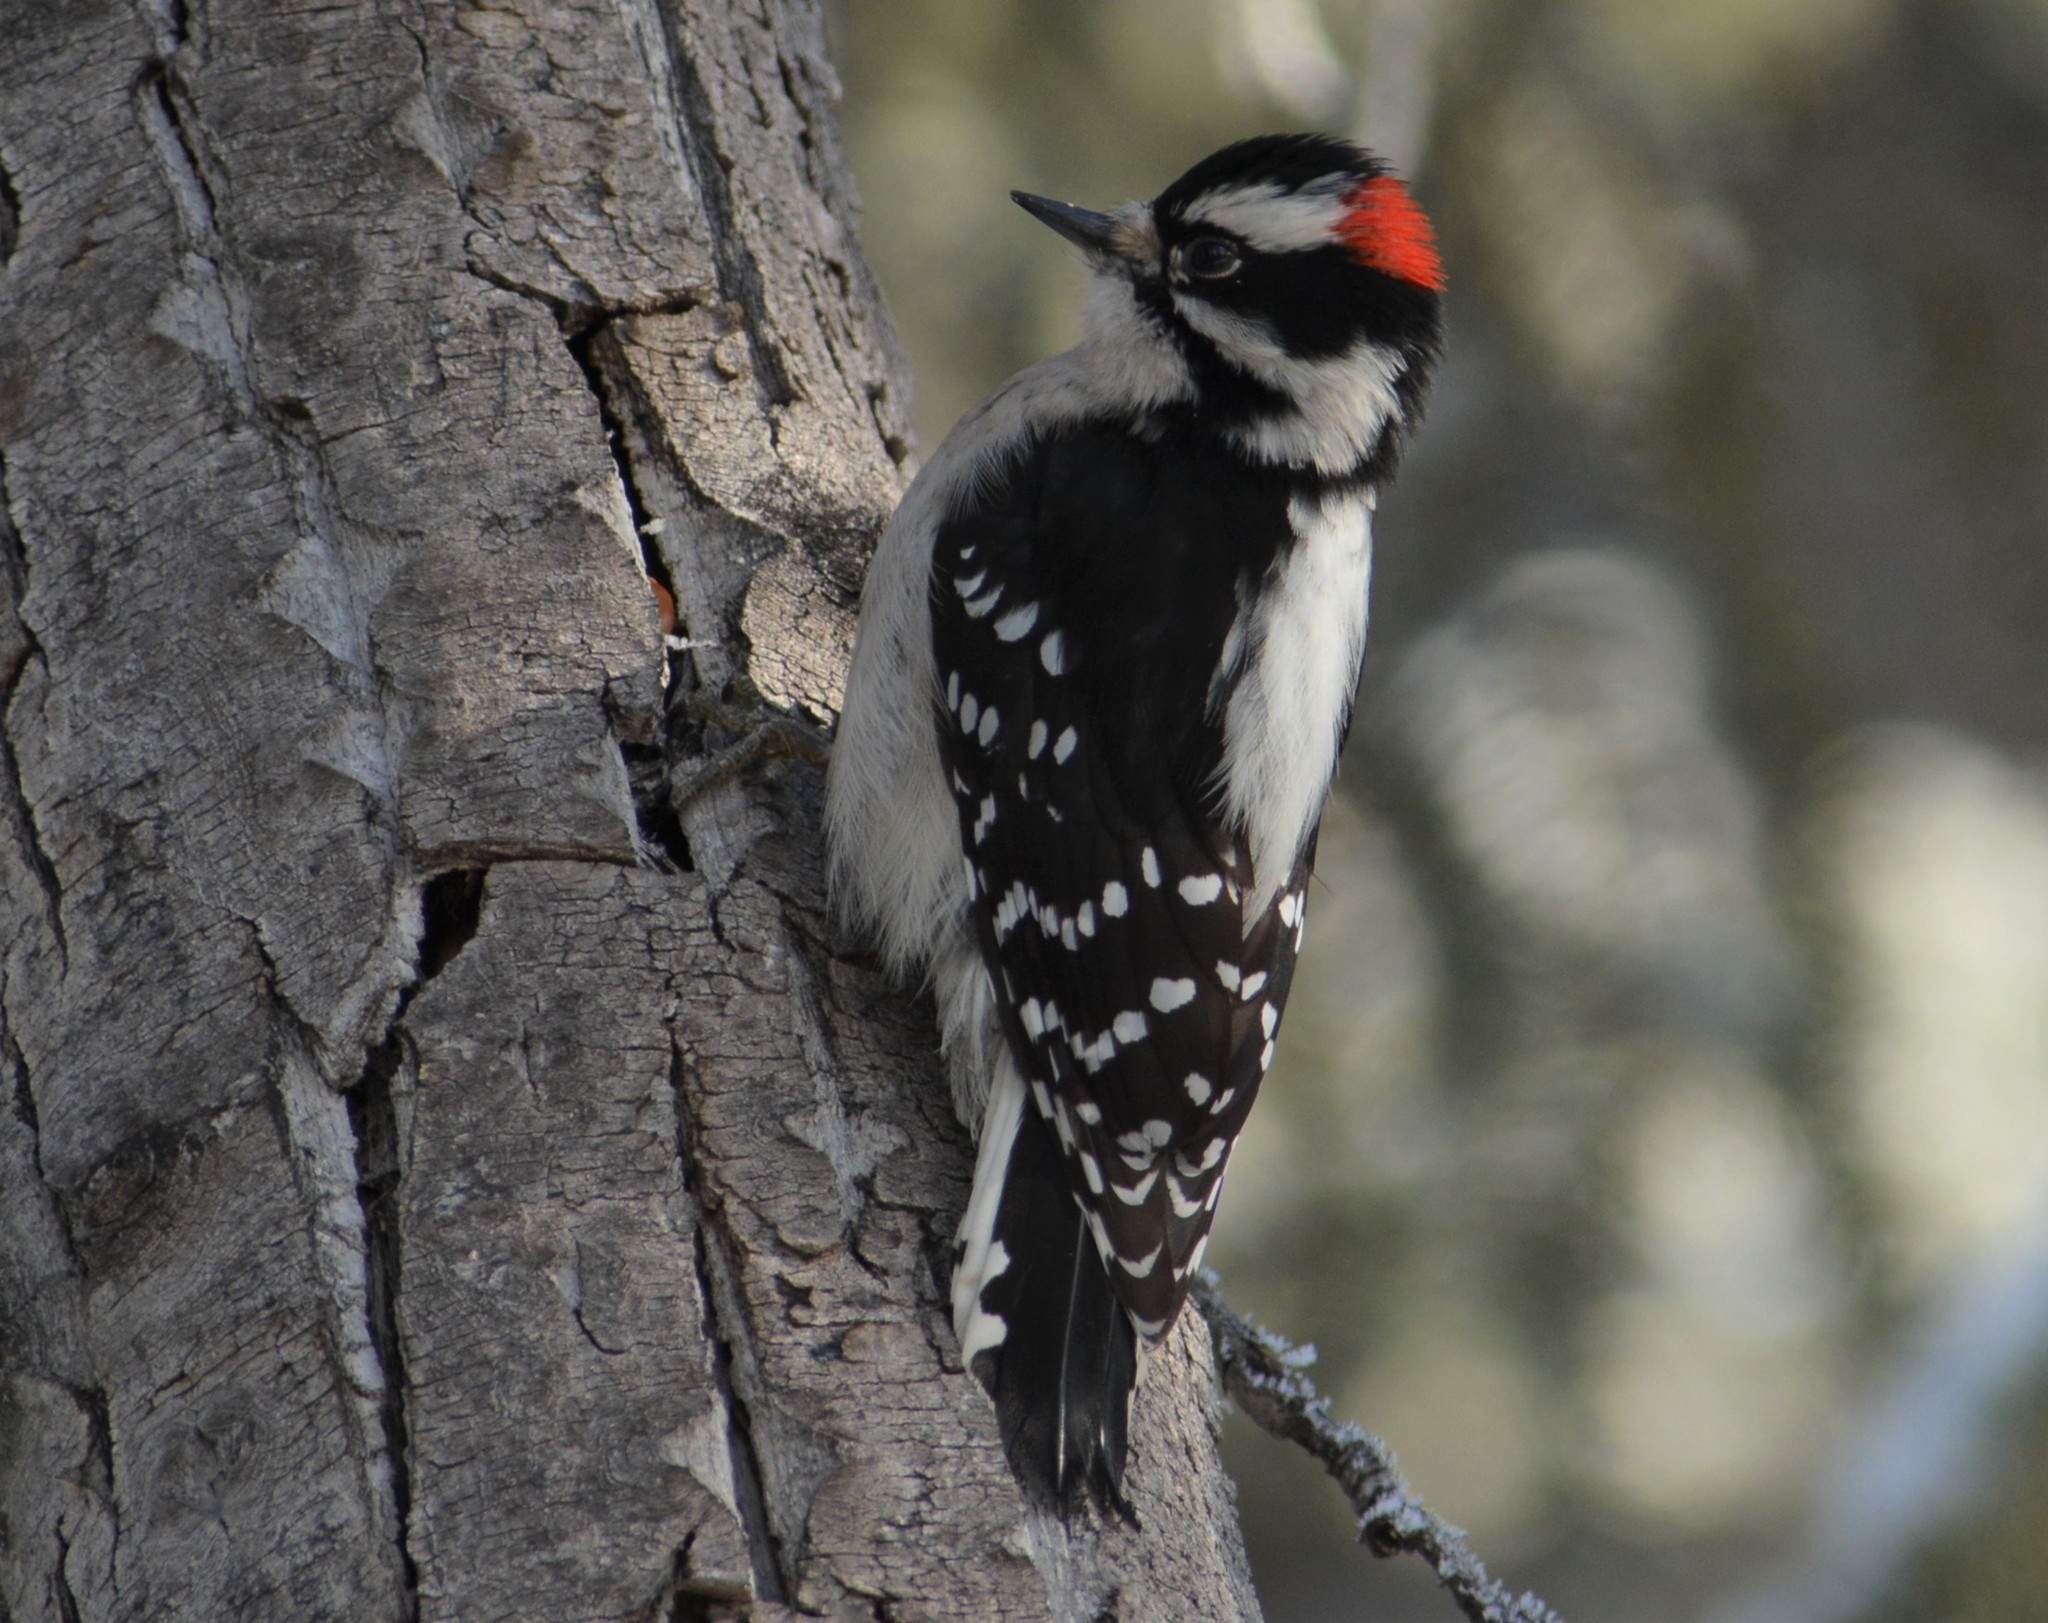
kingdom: Animalia
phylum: Chordata
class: Aves
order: Piciformes
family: Picidae
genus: Dryobates
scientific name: Dryobates pubescens
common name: Downy woodpecker
